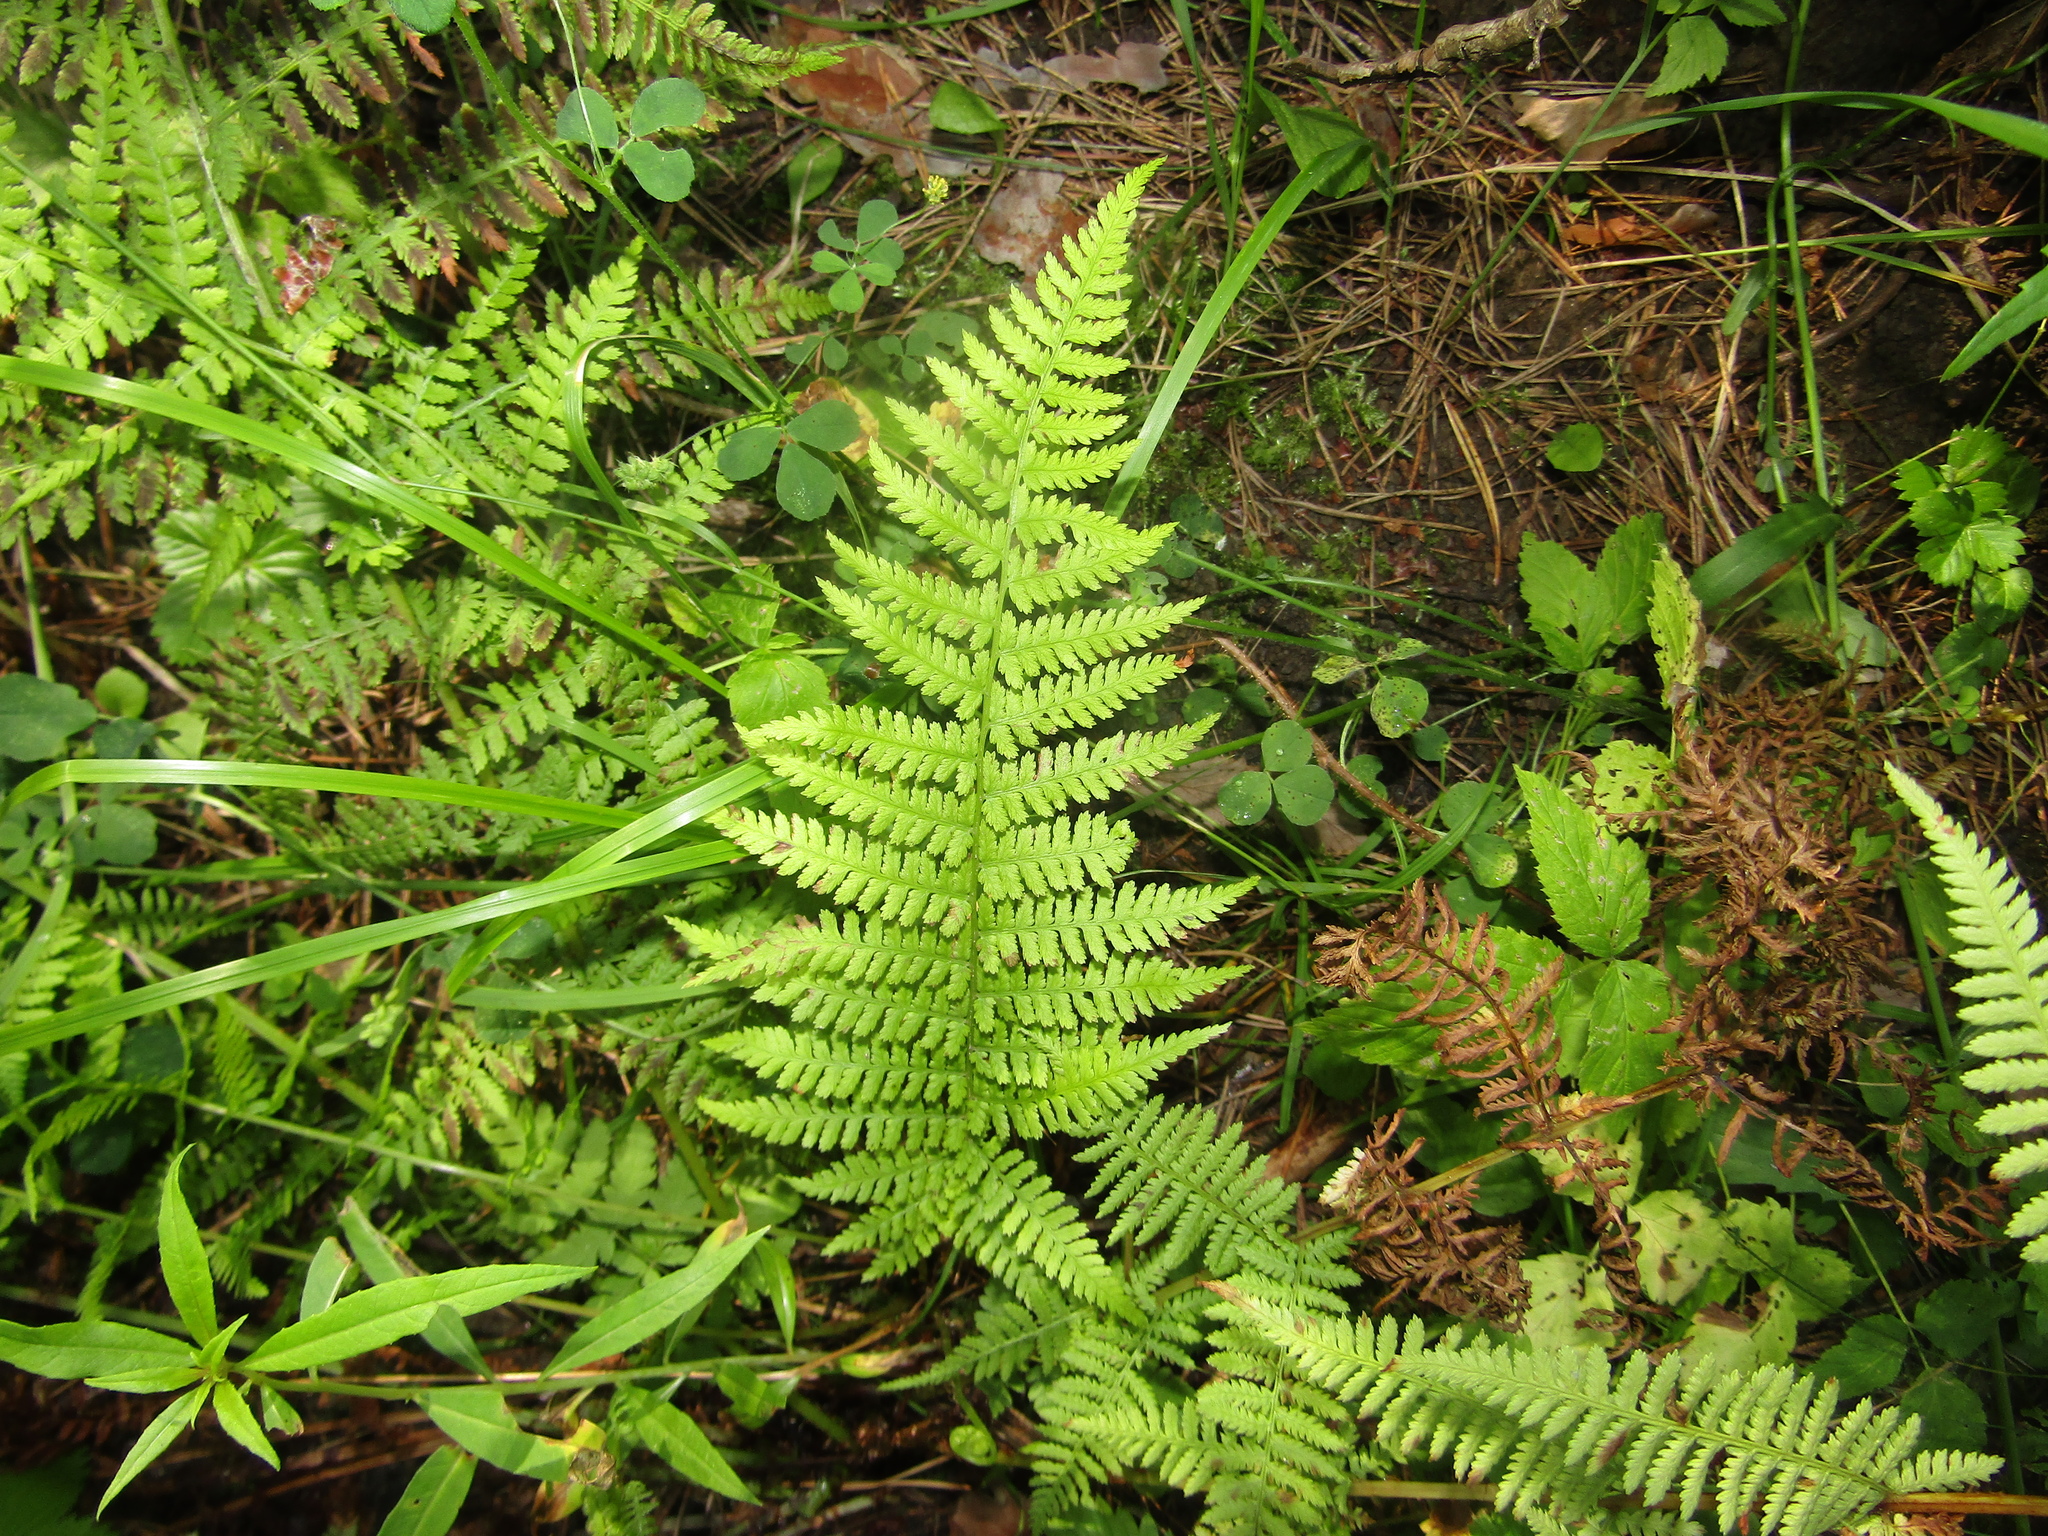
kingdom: Plantae
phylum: Tracheophyta
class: Polypodiopsida
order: Polypodiales
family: Athyriaceae
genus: Athyrium
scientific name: Athyrium filix-femina
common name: Lady fern
